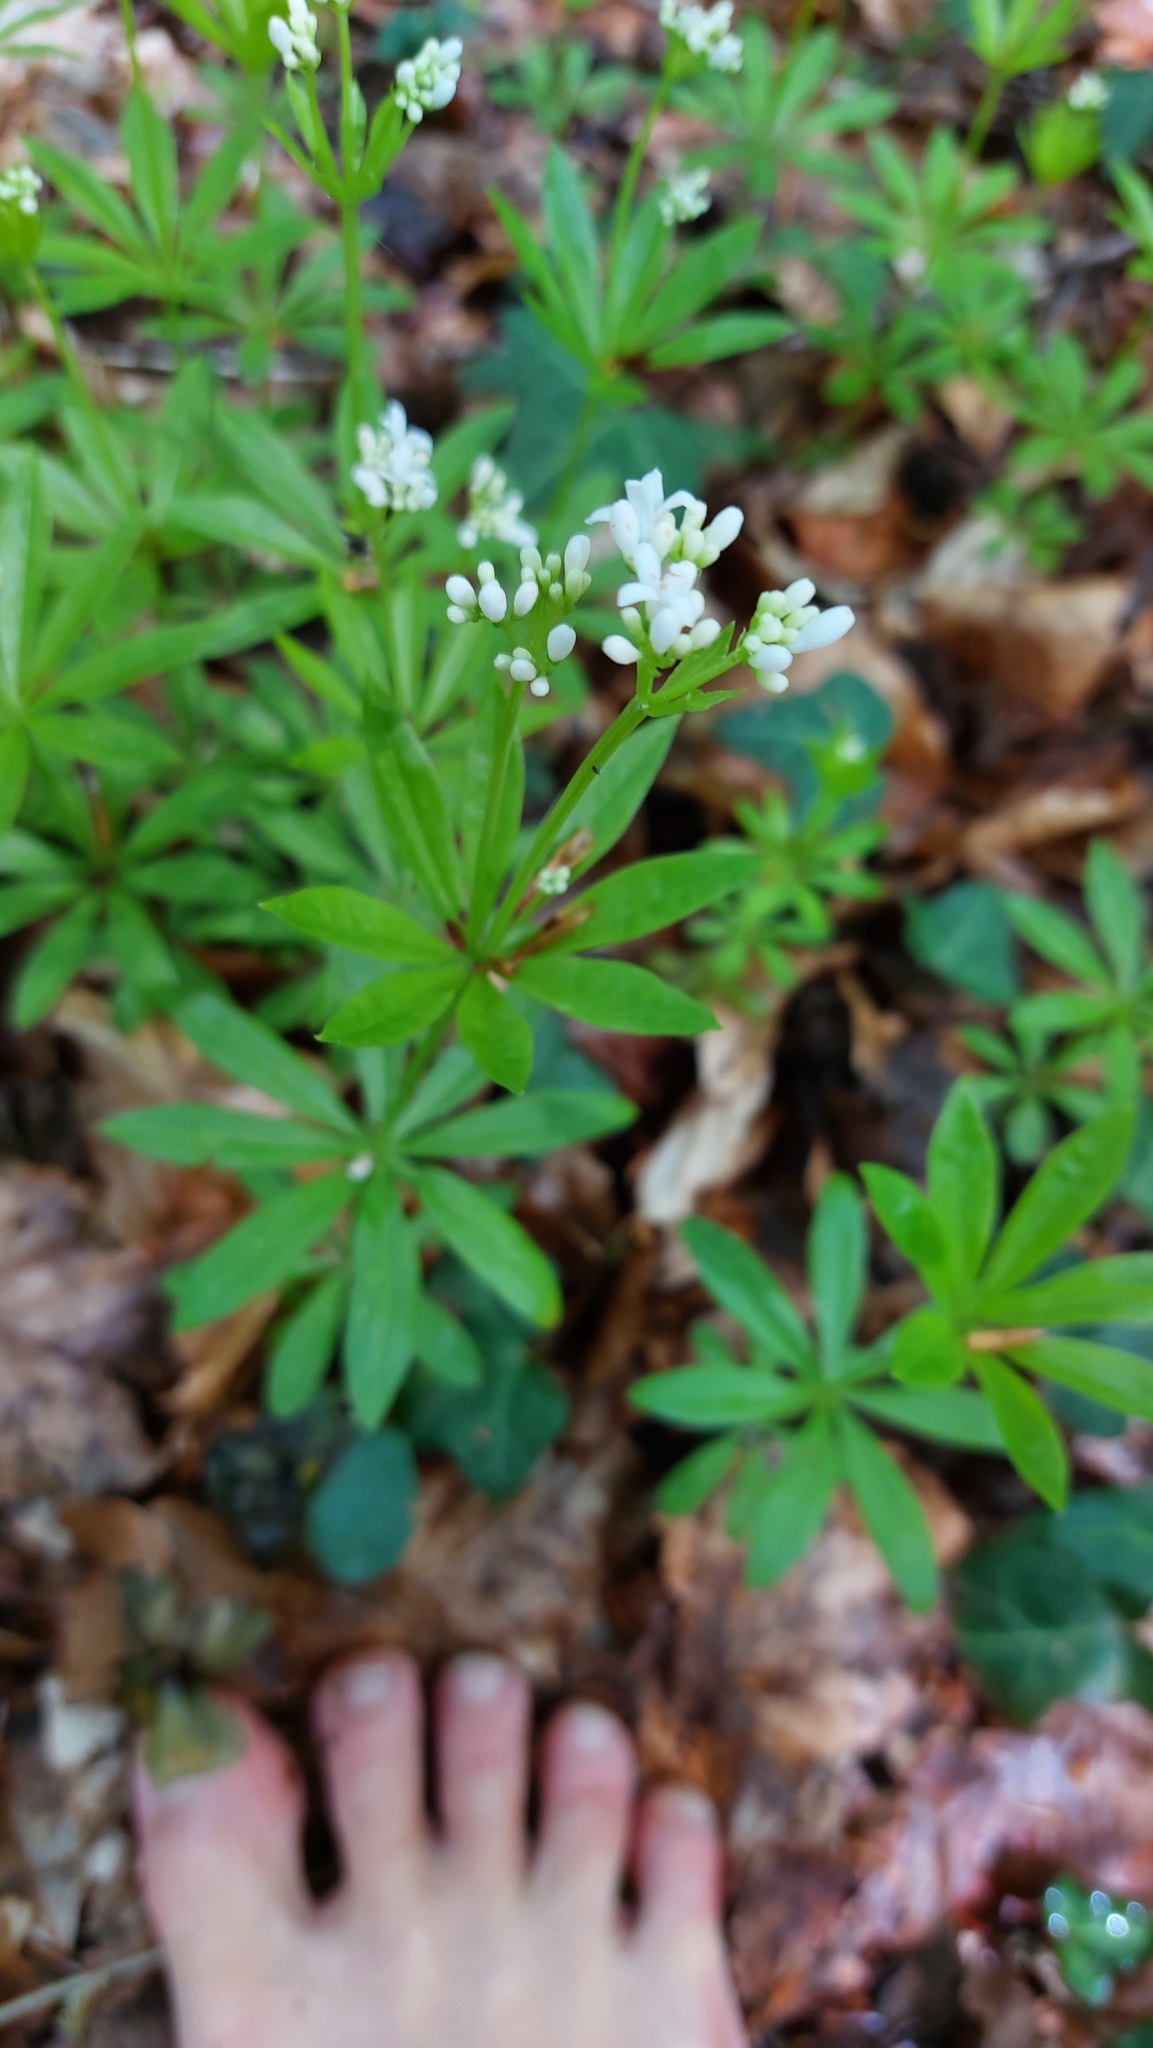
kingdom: Plantae
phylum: Tracheophyta
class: Magnoliopsida
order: Gentianales
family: Rubiaceae
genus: Galium
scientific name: Galium odoratum
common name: Sweet woodruff
